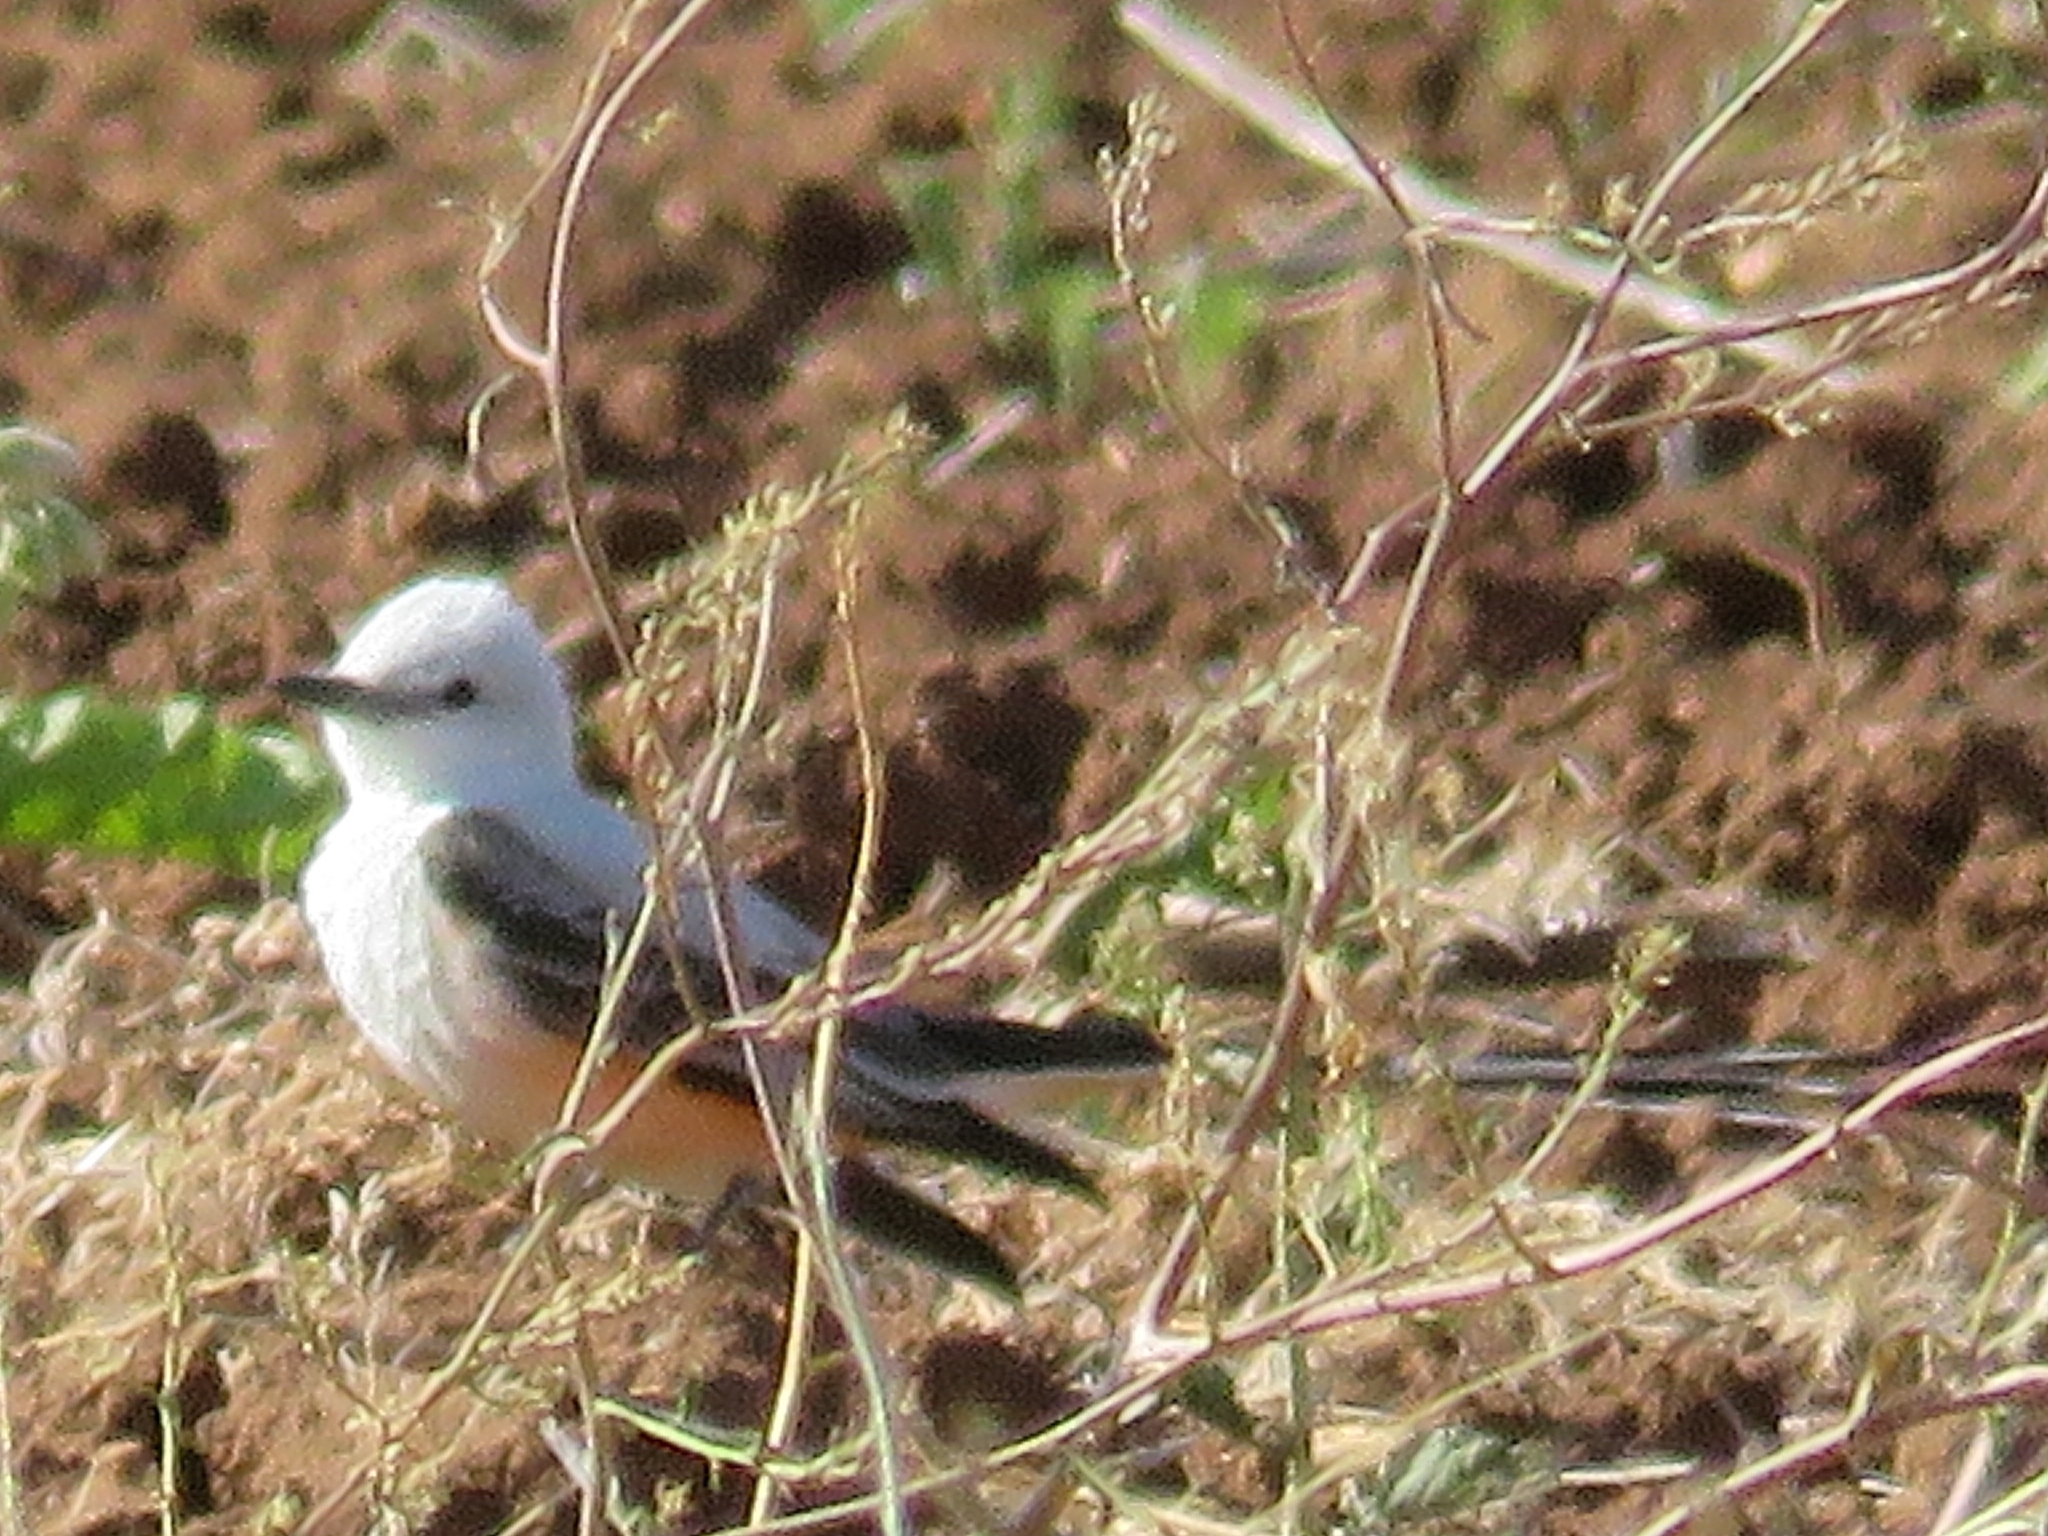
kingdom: Animalia
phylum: Chordata
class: Aves
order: Passeriformes
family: Tyrannidae
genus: Tyrannus
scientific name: Tyrannus forficatus
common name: Scissor-tailed flycatcher
